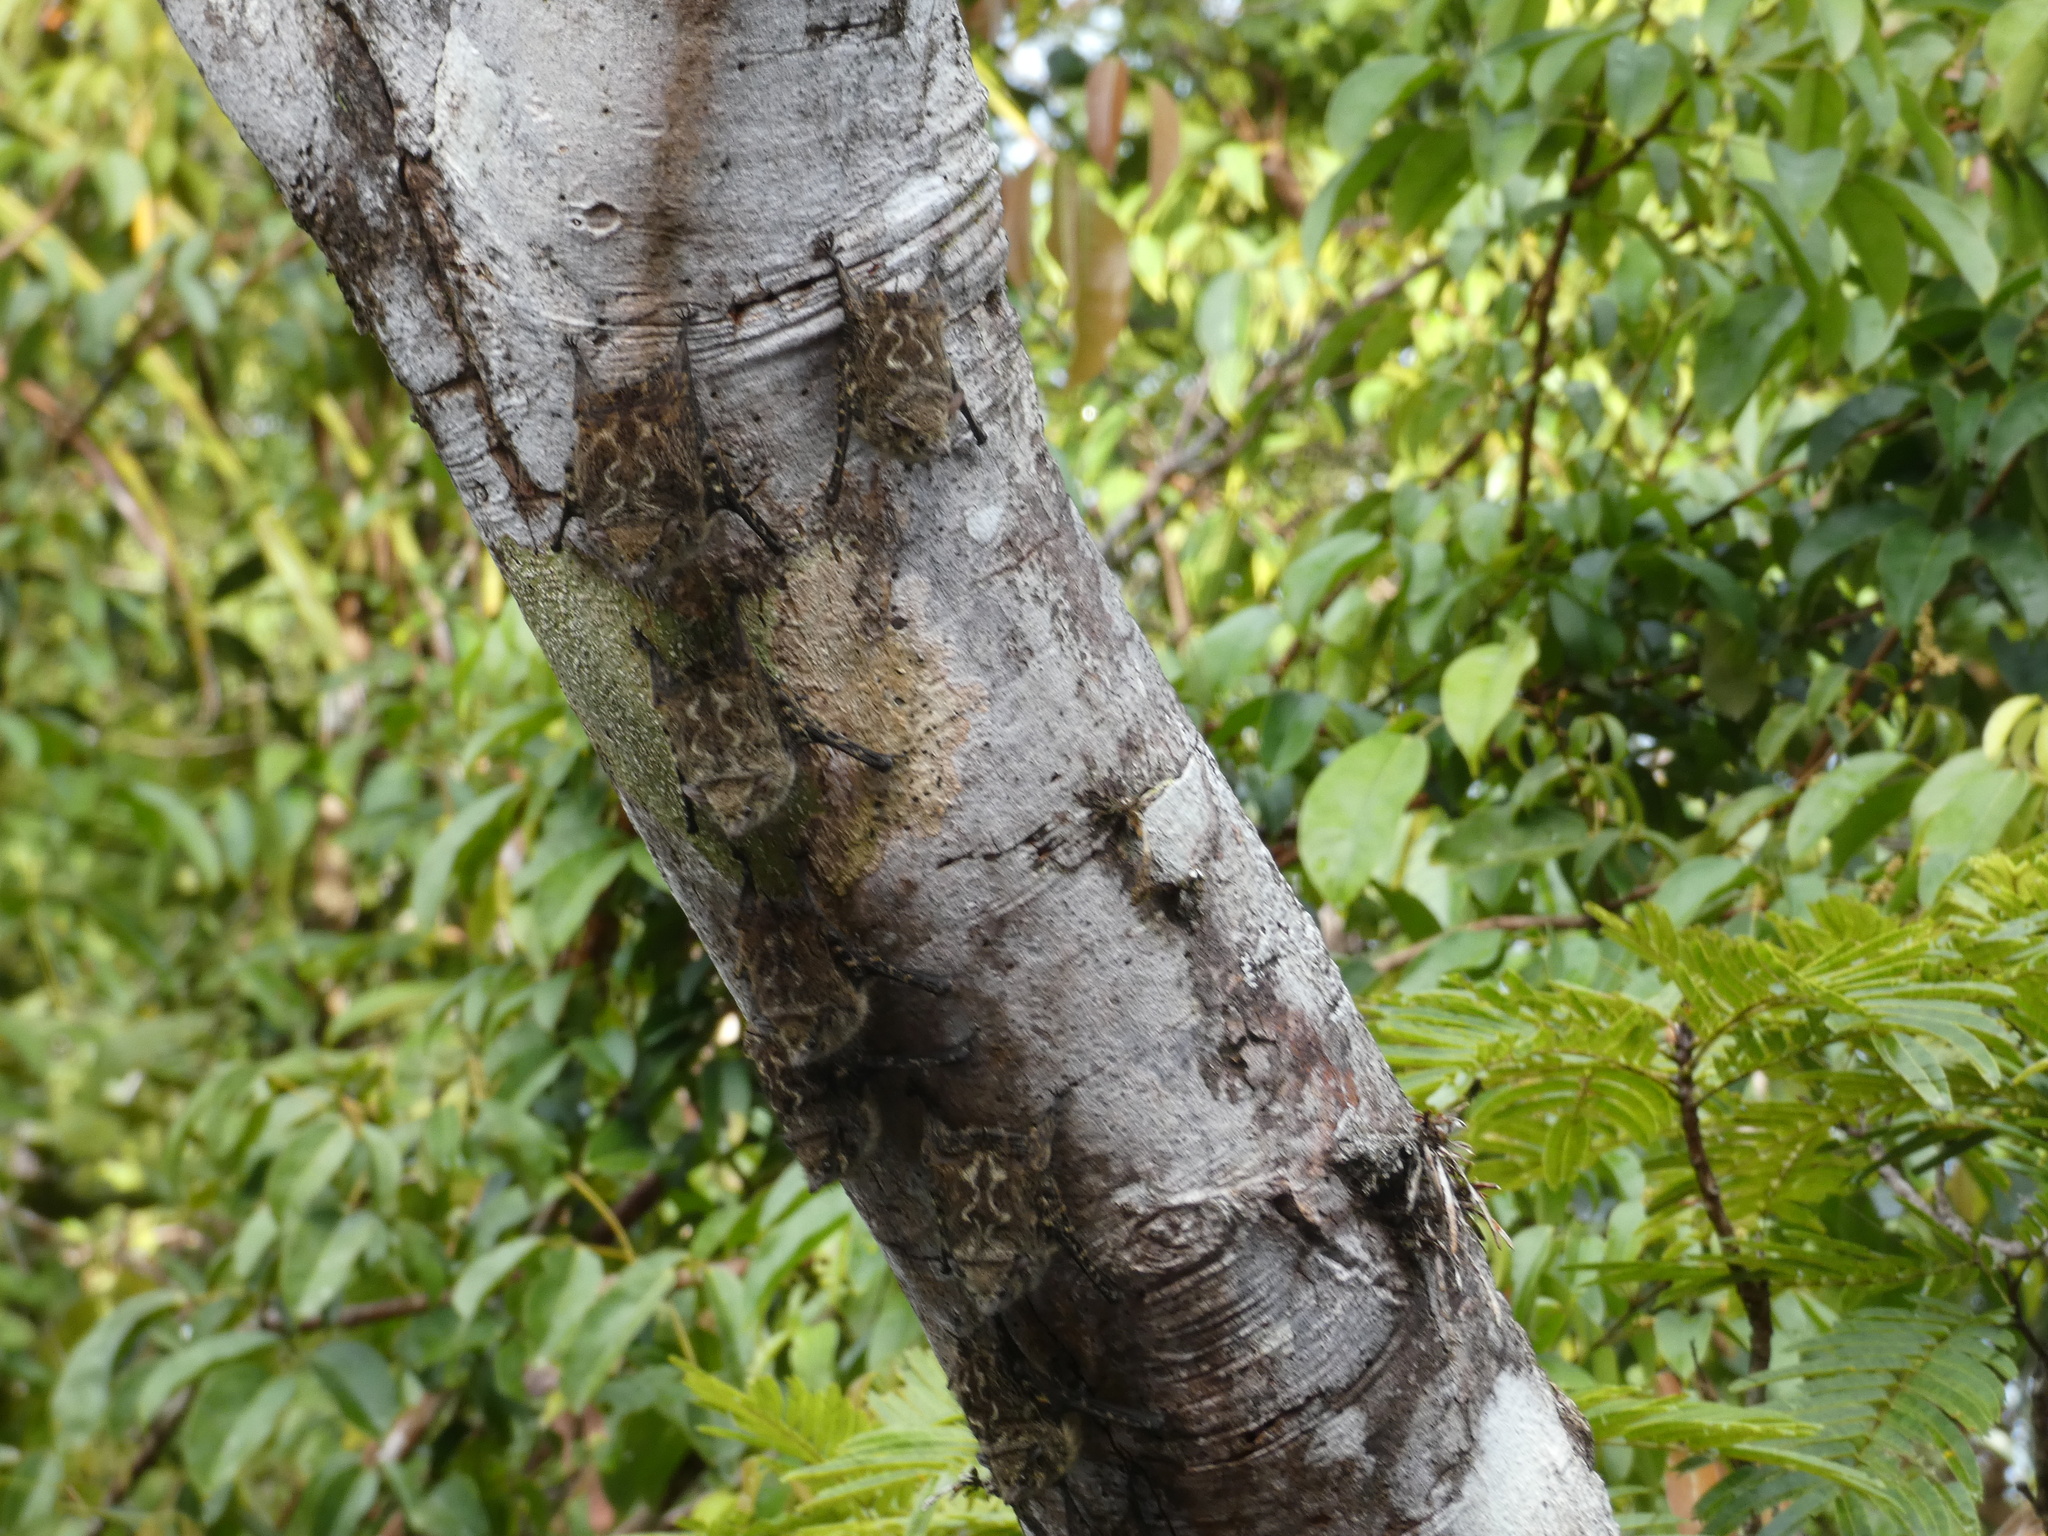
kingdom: Animalia
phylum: Chordata
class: Mammalia
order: Chiroptera
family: Emballonuridae
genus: Rhynchonycteris
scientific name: Rhynchonycteris naso
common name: Proboscis bat
